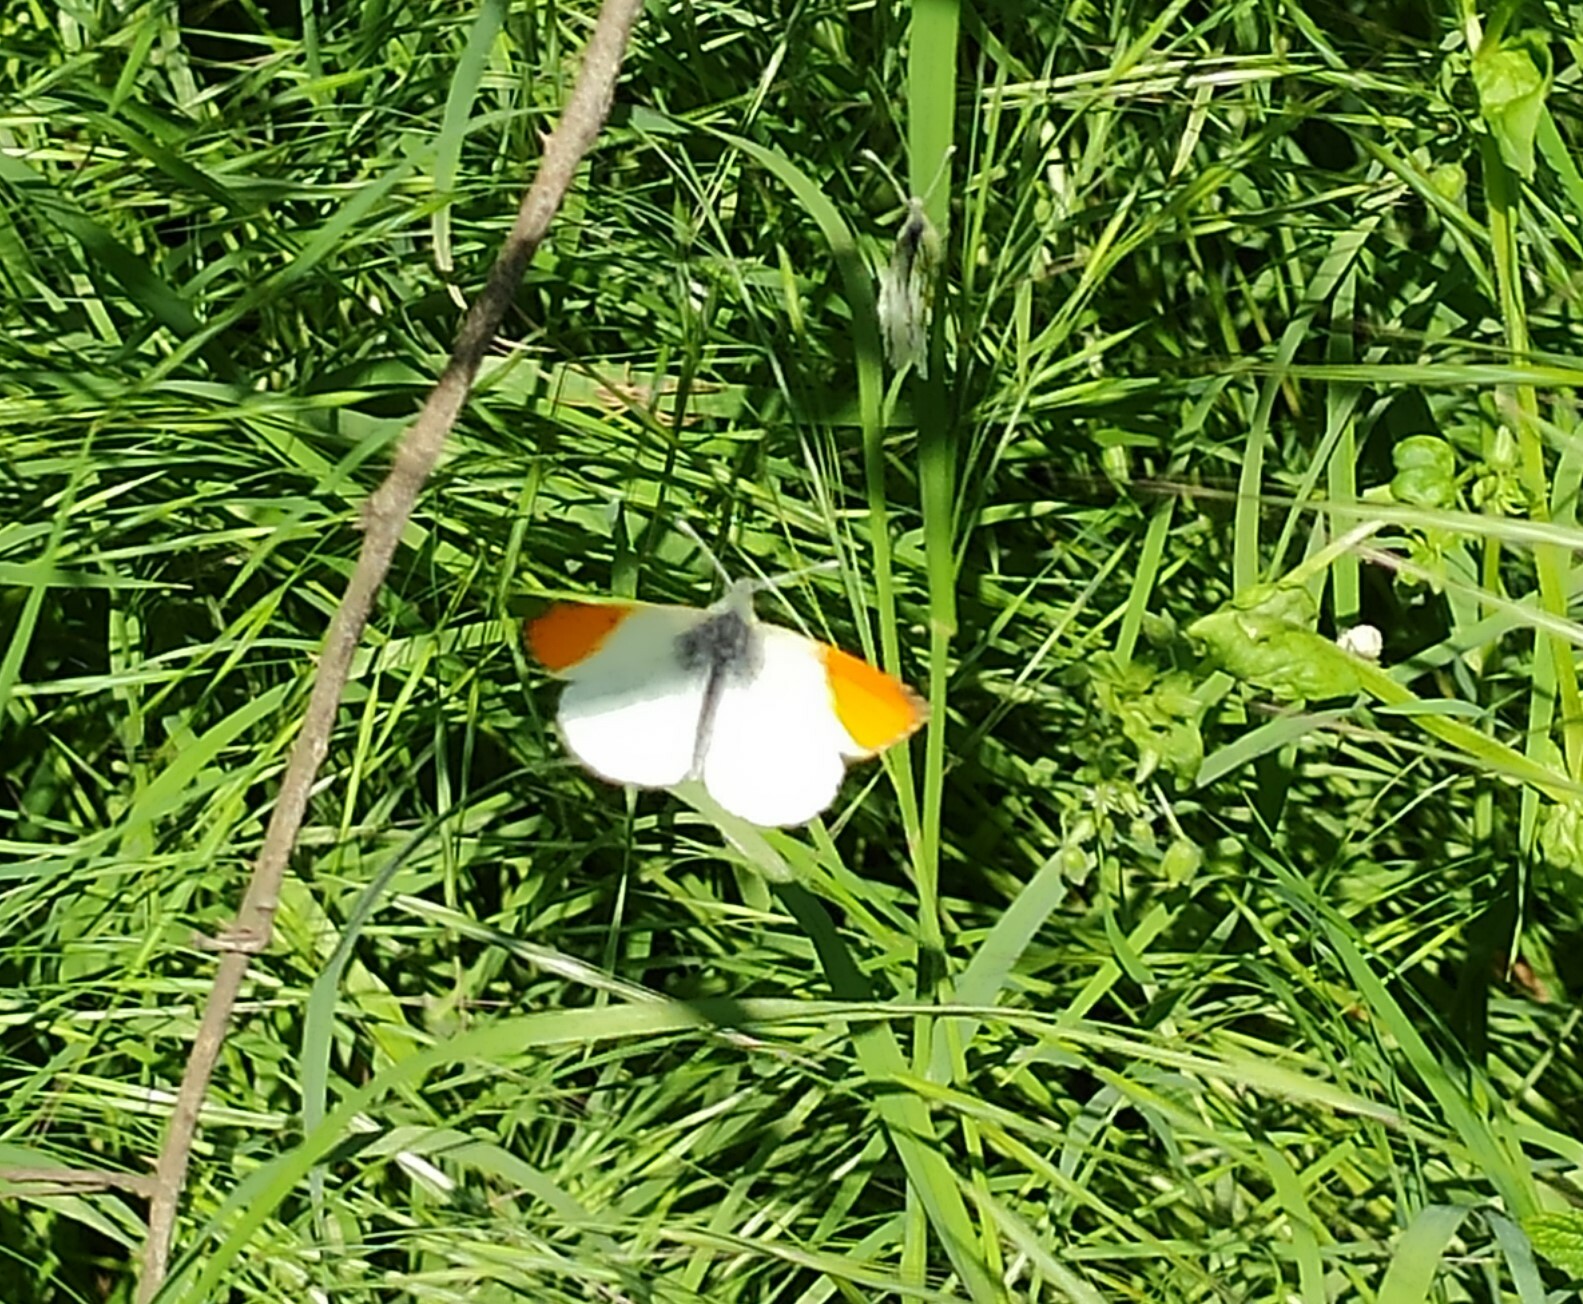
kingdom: Animalia
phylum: Arthropoda
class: Insecta
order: Lepidoptera
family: Pieridae
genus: Anthocharis
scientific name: Anthocharis cardamines
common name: Orange-tip
